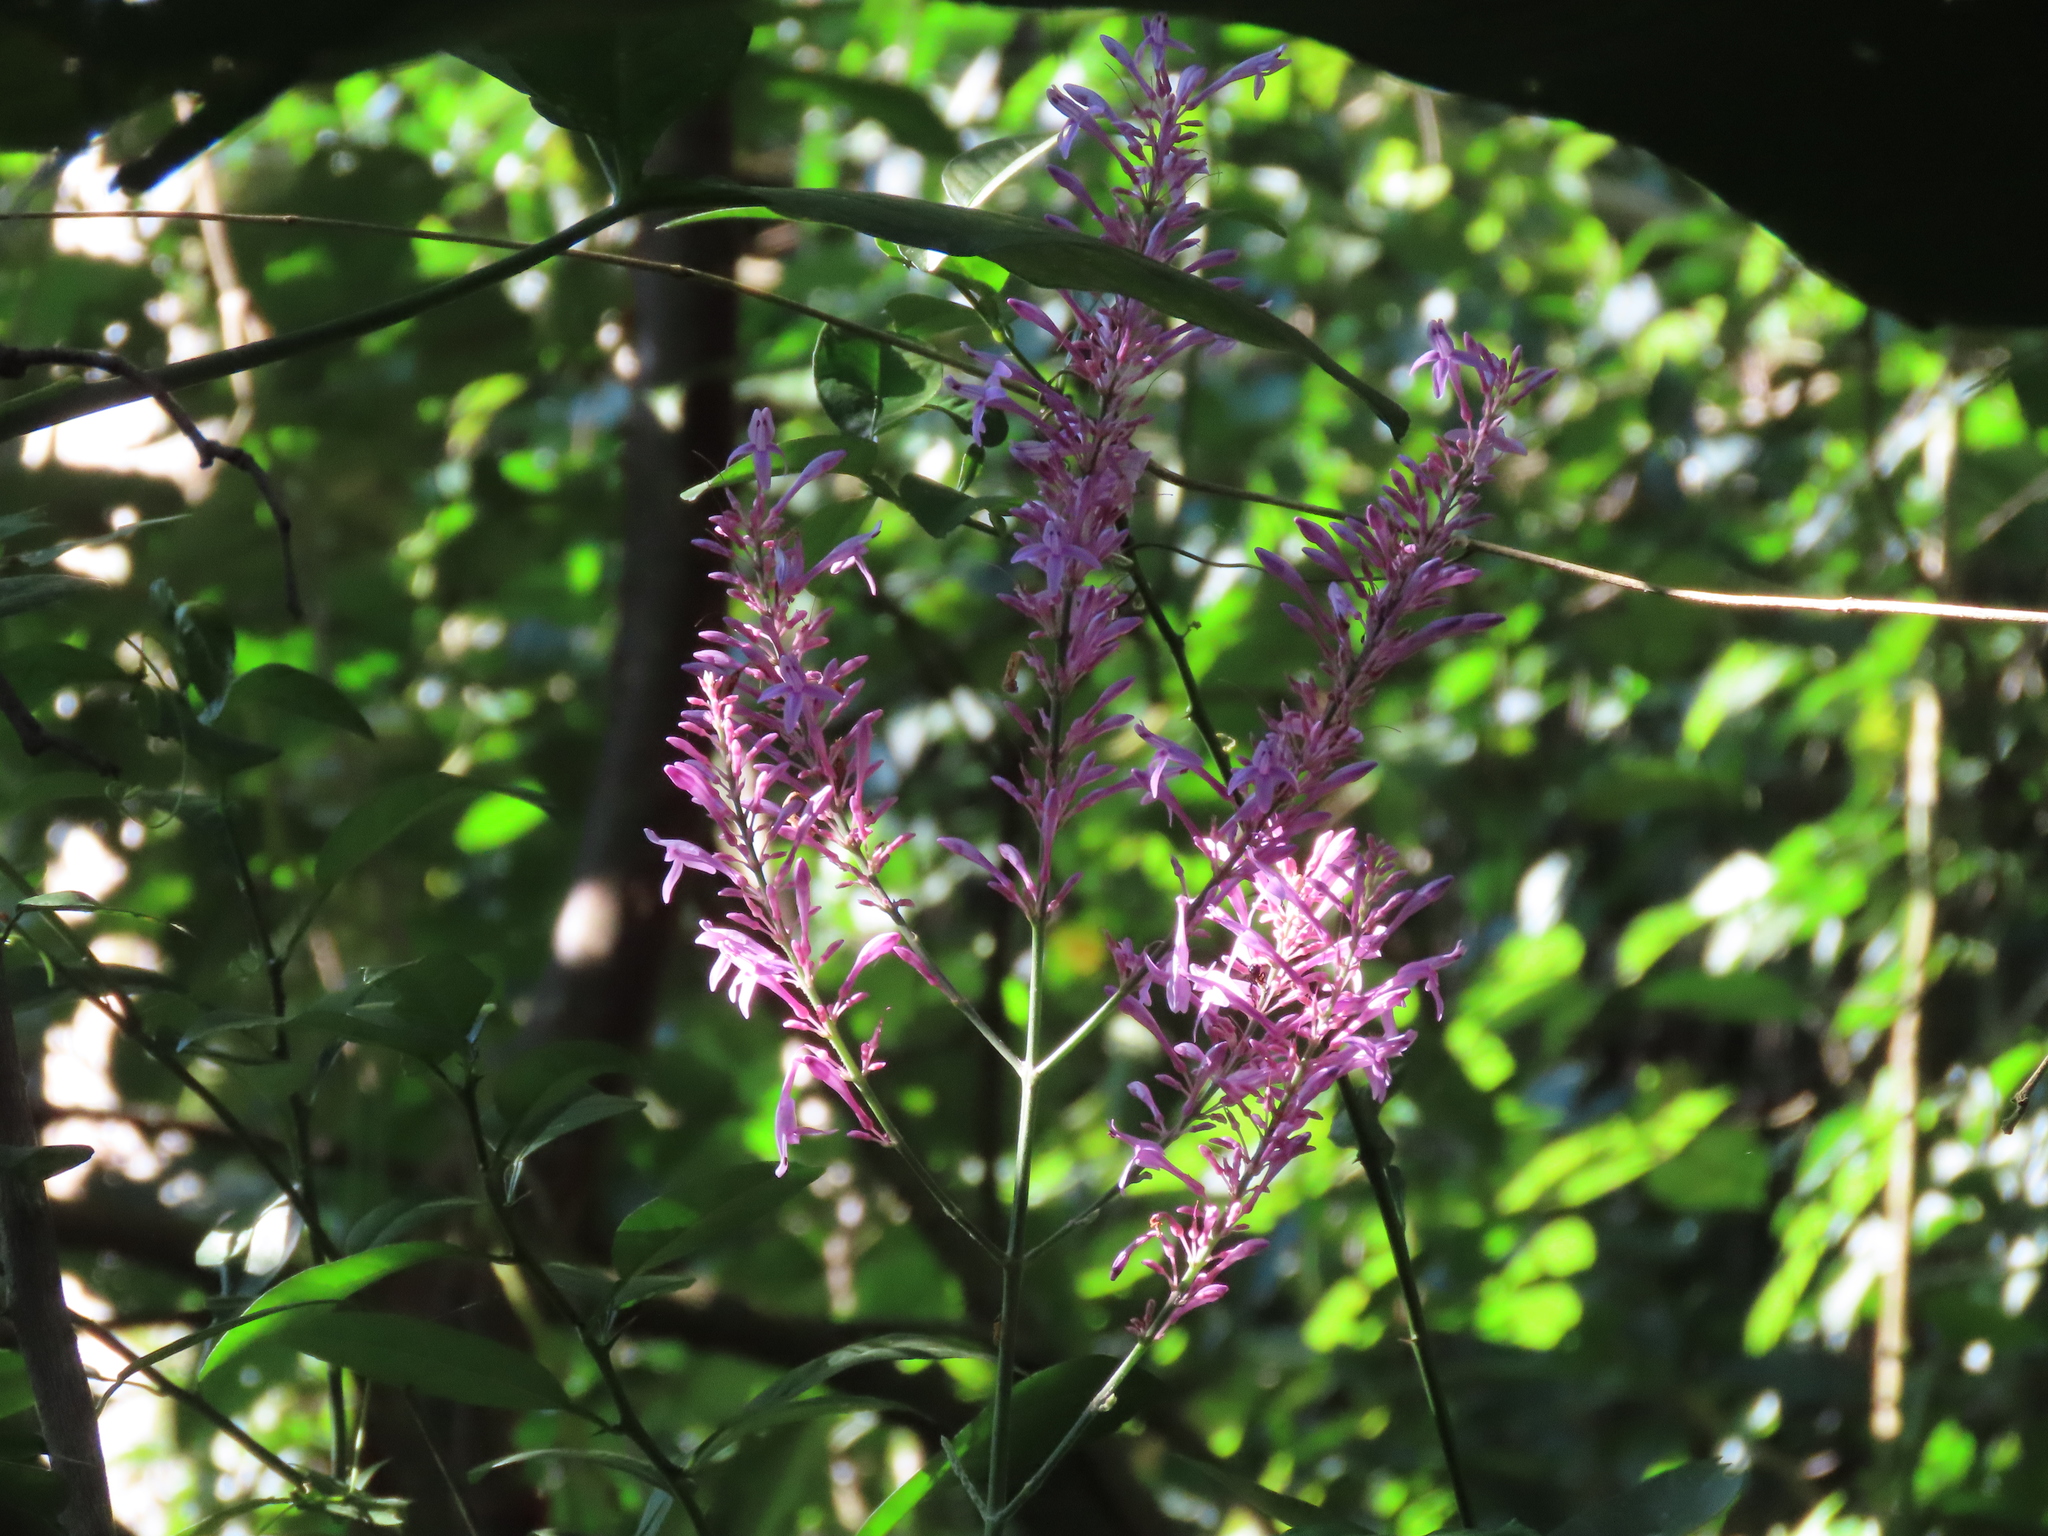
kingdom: Plantae
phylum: Tracheophyta
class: Magnoliopsida
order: Lamiales
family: Acanthaceae
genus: Odontonema
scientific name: Odontonema callistachyum
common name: Firespike
